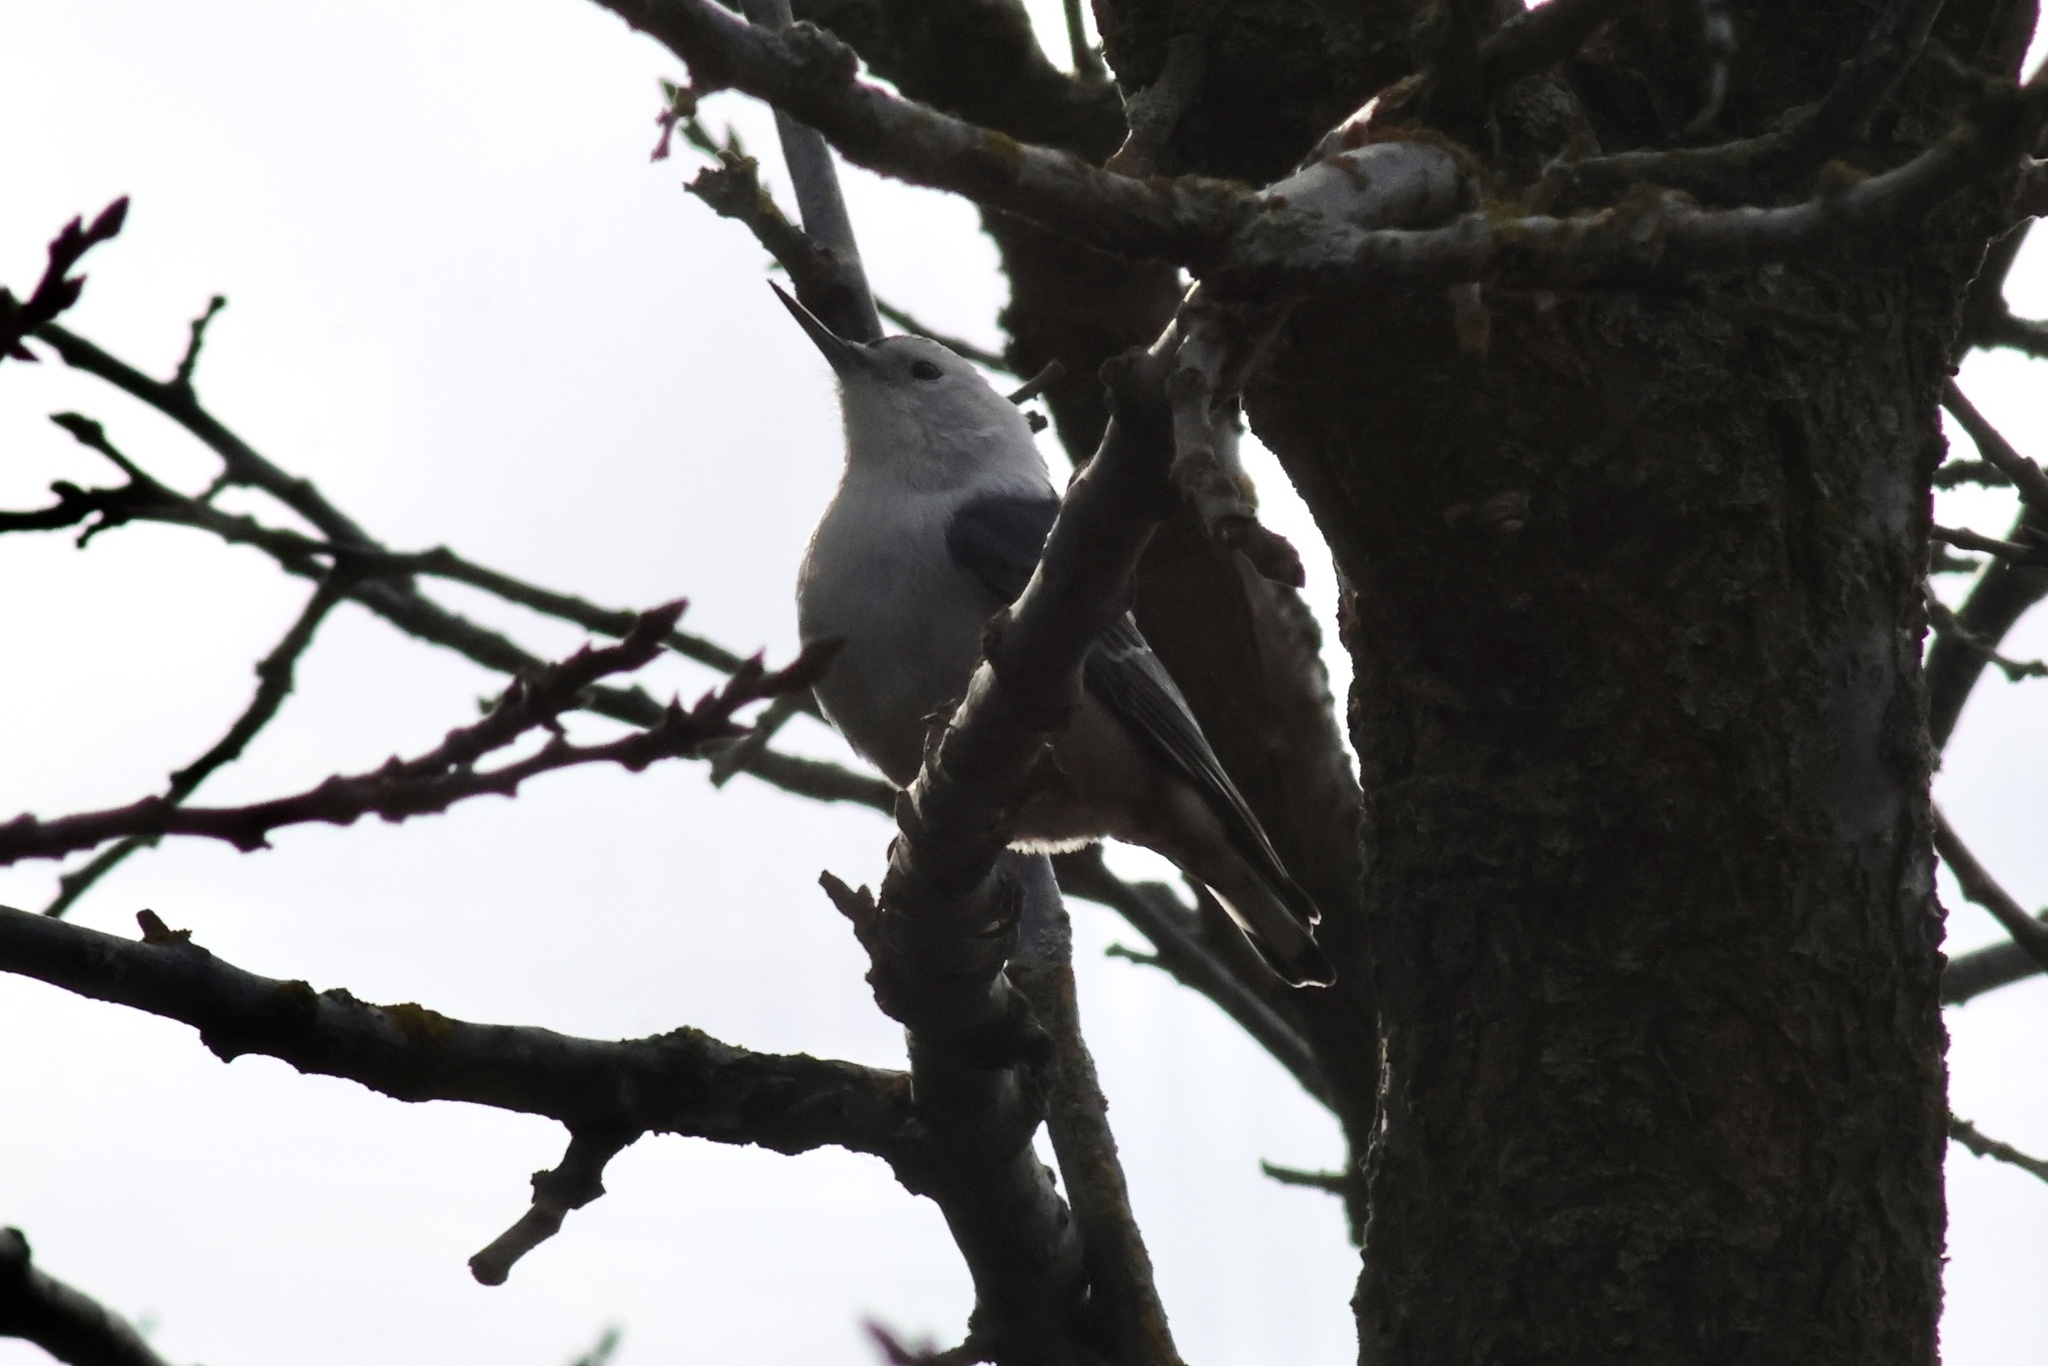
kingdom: Animalia
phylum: Chordata
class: Aves
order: Passeriformes
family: Sittidae
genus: Sitta
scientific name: Sitta carolinensis
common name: White-breasted nuthatch
